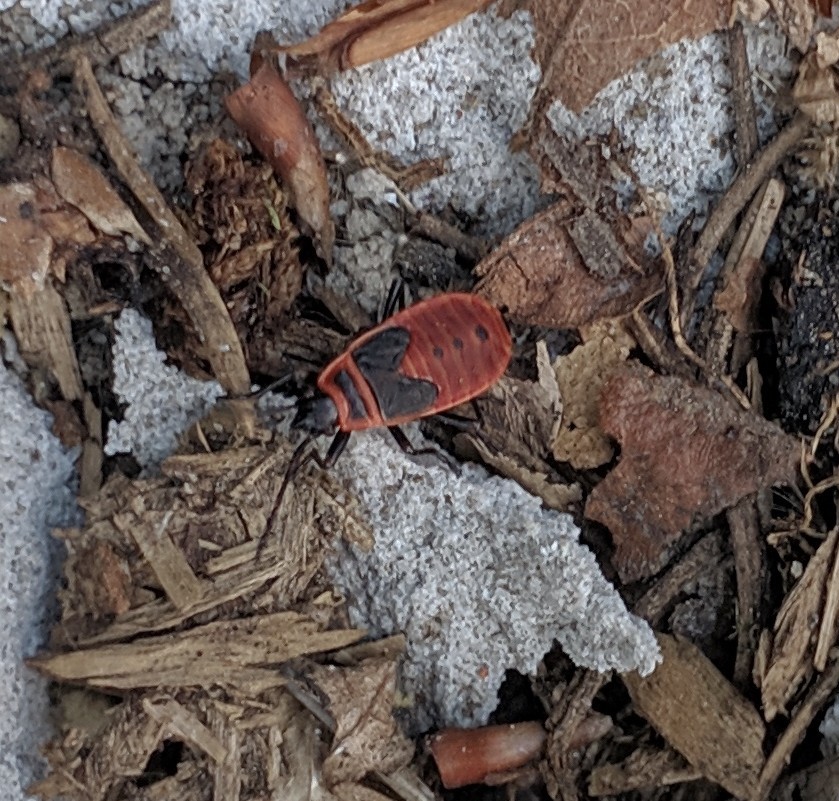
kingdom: Animalia
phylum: Arthropoda
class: Insecta
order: Hemiptera
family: Pyrrhocoridae
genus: Pyrrhocoris
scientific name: Pyrrhocoris apterus
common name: Firebug
